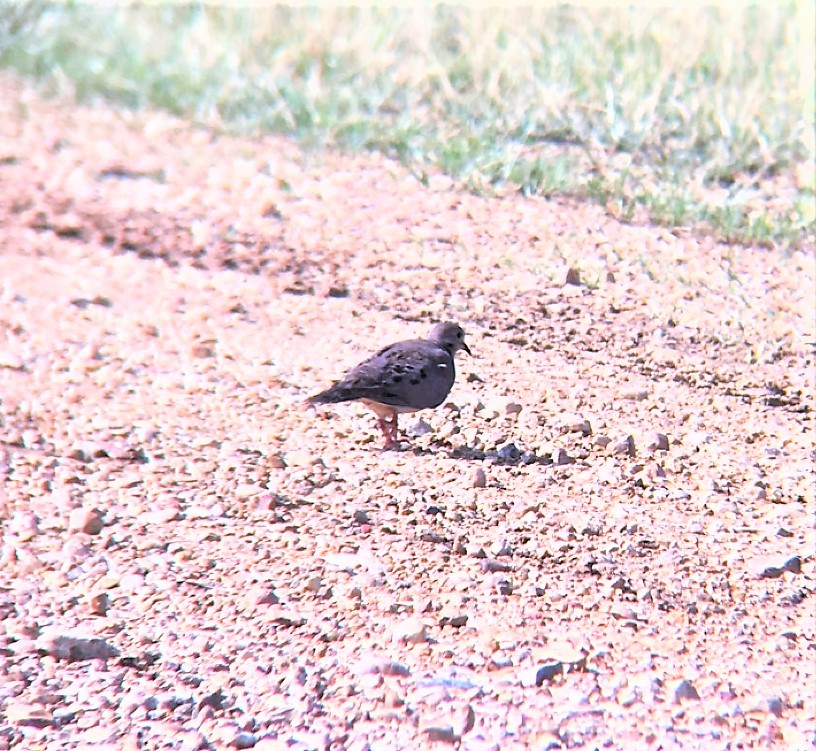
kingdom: Animalia
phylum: Chordata
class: Aves
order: Columbiformes
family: Columbidae
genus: Zenaida
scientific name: Zenaida macroura
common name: Mourning dove
